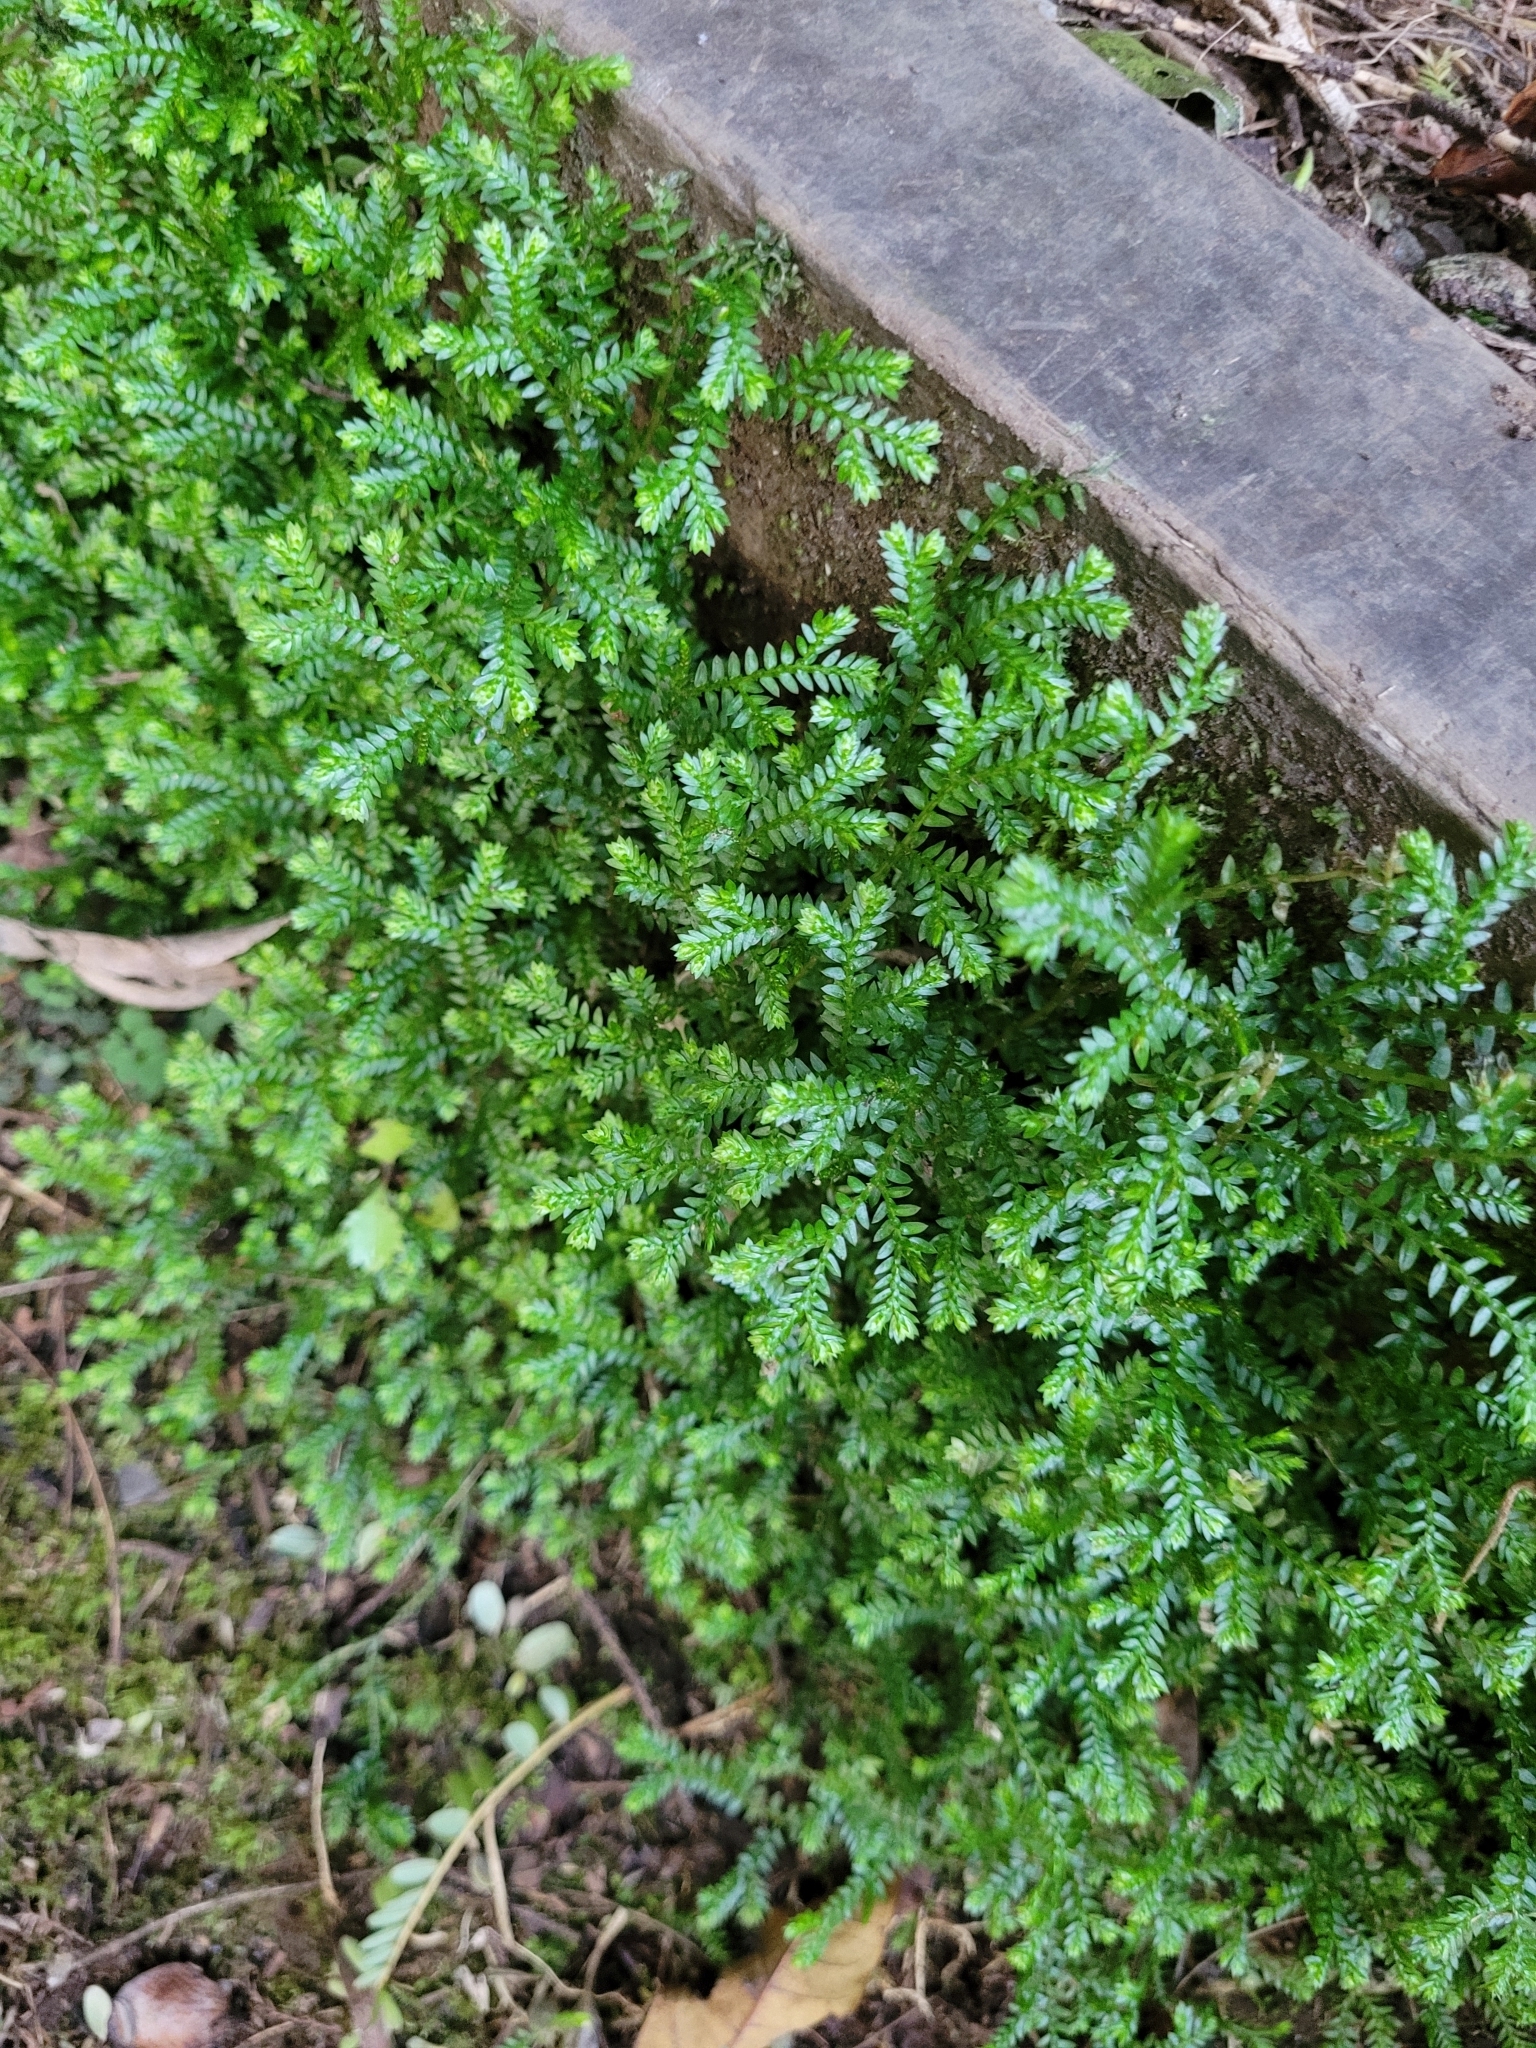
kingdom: Plantae
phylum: Tracheophyta
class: Lycopodiopsida
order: Selaginellales
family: Selaginellaceae
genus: Selaginella
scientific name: Selaginella kraussiana
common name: Krauss' spikemoss
